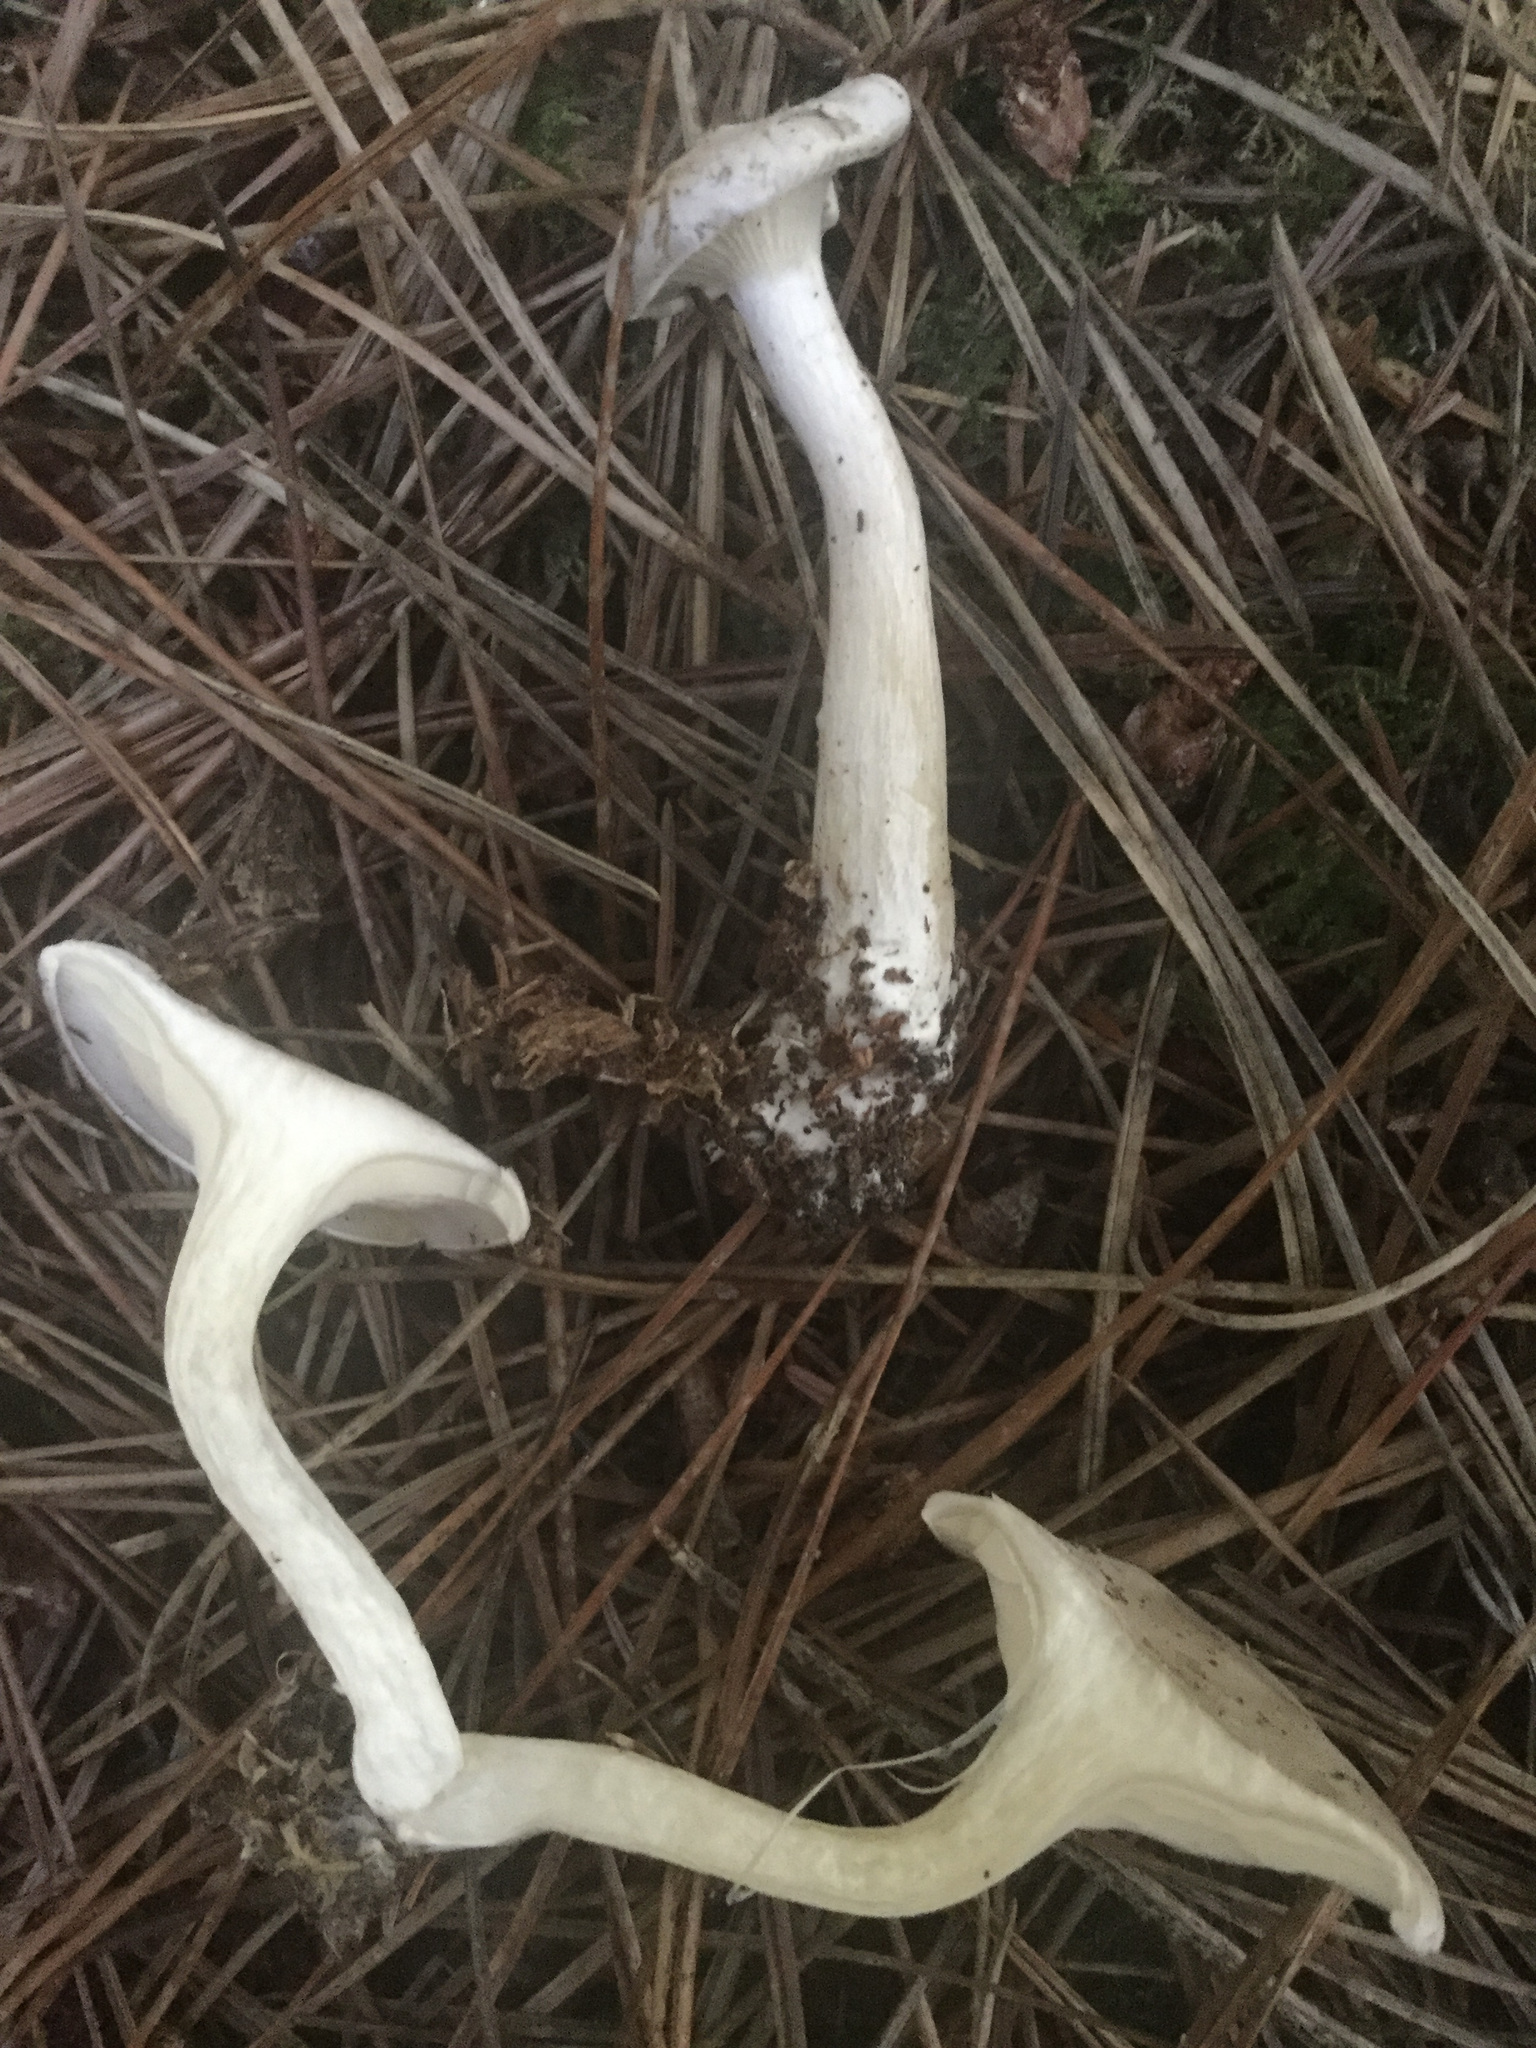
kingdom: Fungi
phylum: Basidiomycota
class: Agaricomycetes
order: Agaricales
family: Entolomataceae
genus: Clitopilus
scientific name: Clitopilus prunulus
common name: The miller
